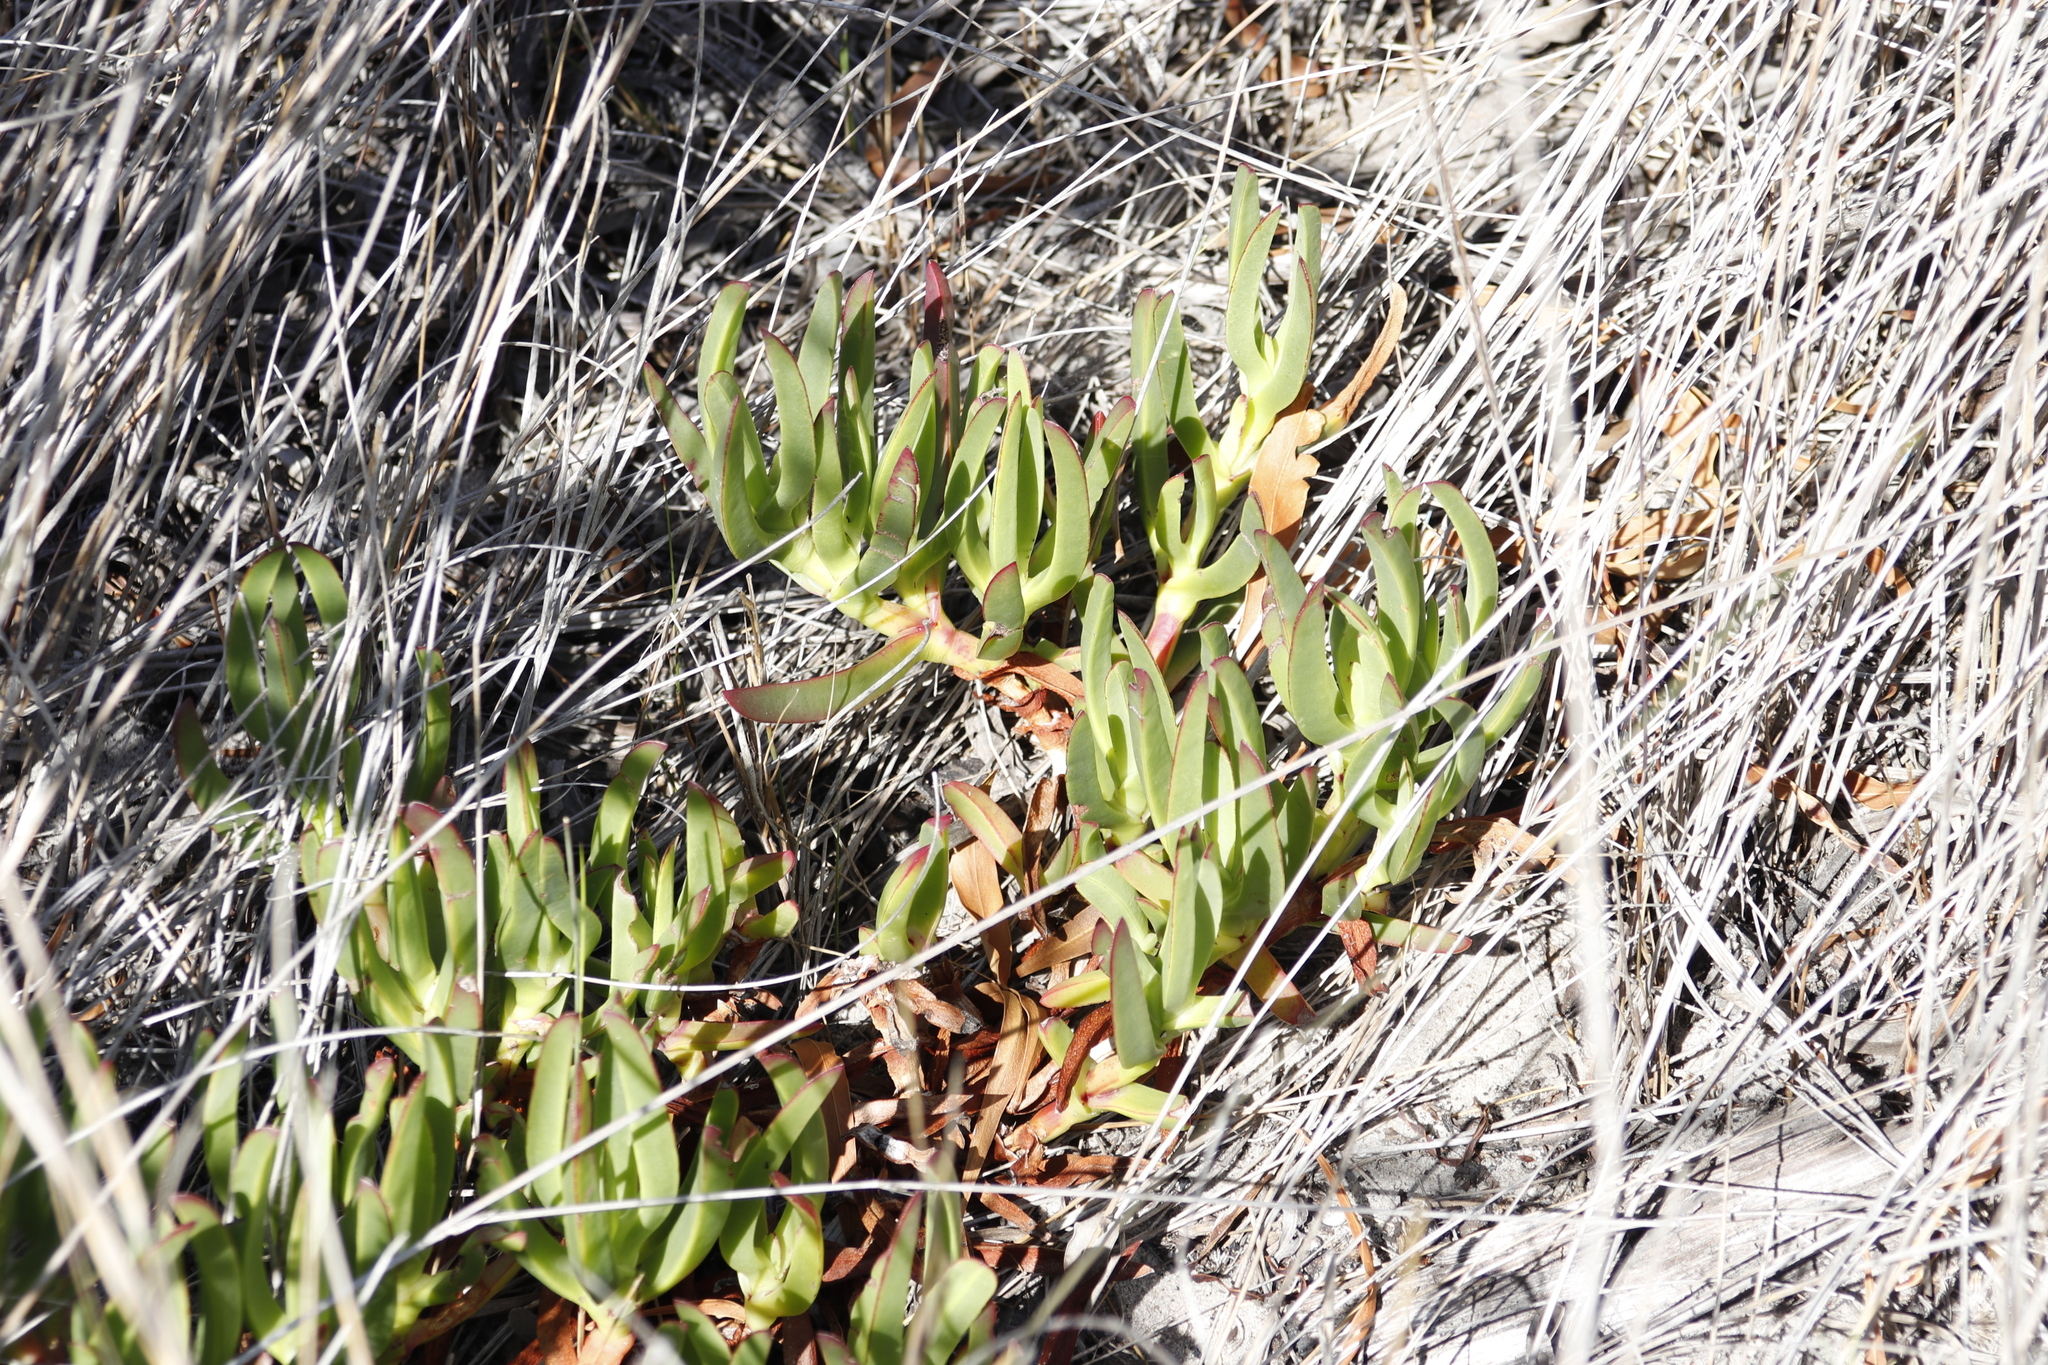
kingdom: Plantae
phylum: Tracheophyta
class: Magnoliopsida
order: Caryophyllales
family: Aizoaceae
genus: Carpobrotus
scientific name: Carpobrotus edulis
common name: Hottentot-fig
